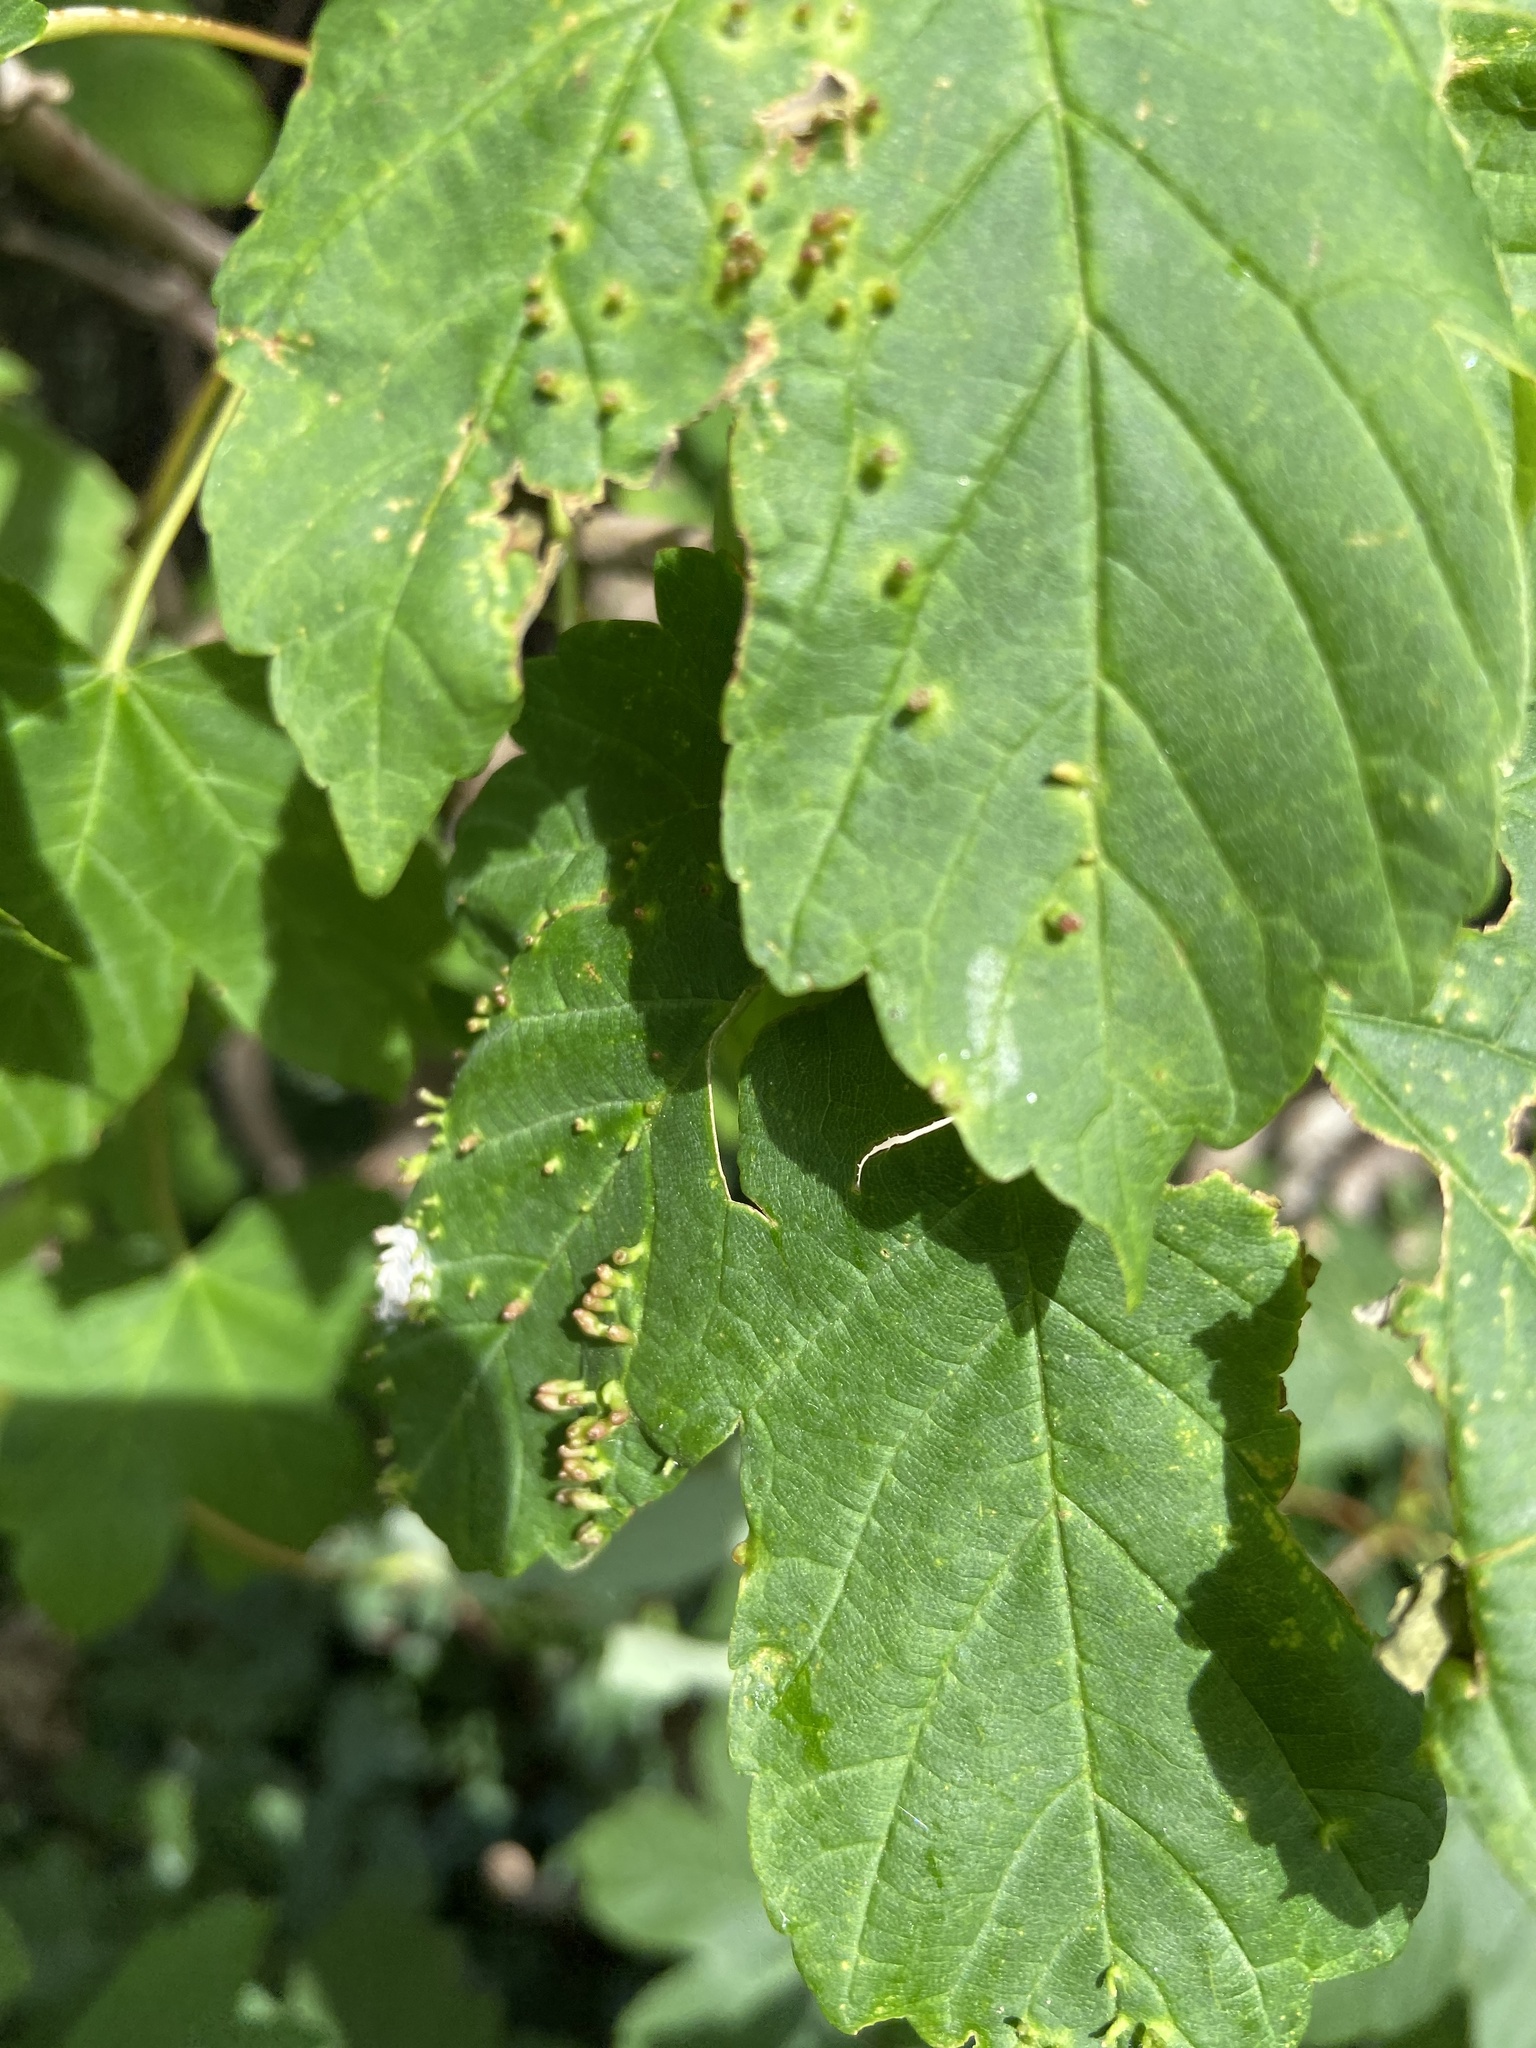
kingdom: Animalia
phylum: Arthropoda
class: Arachnida
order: Trombidiformes
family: Eriophyidae
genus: Aceria
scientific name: Aceria cephaloneus
